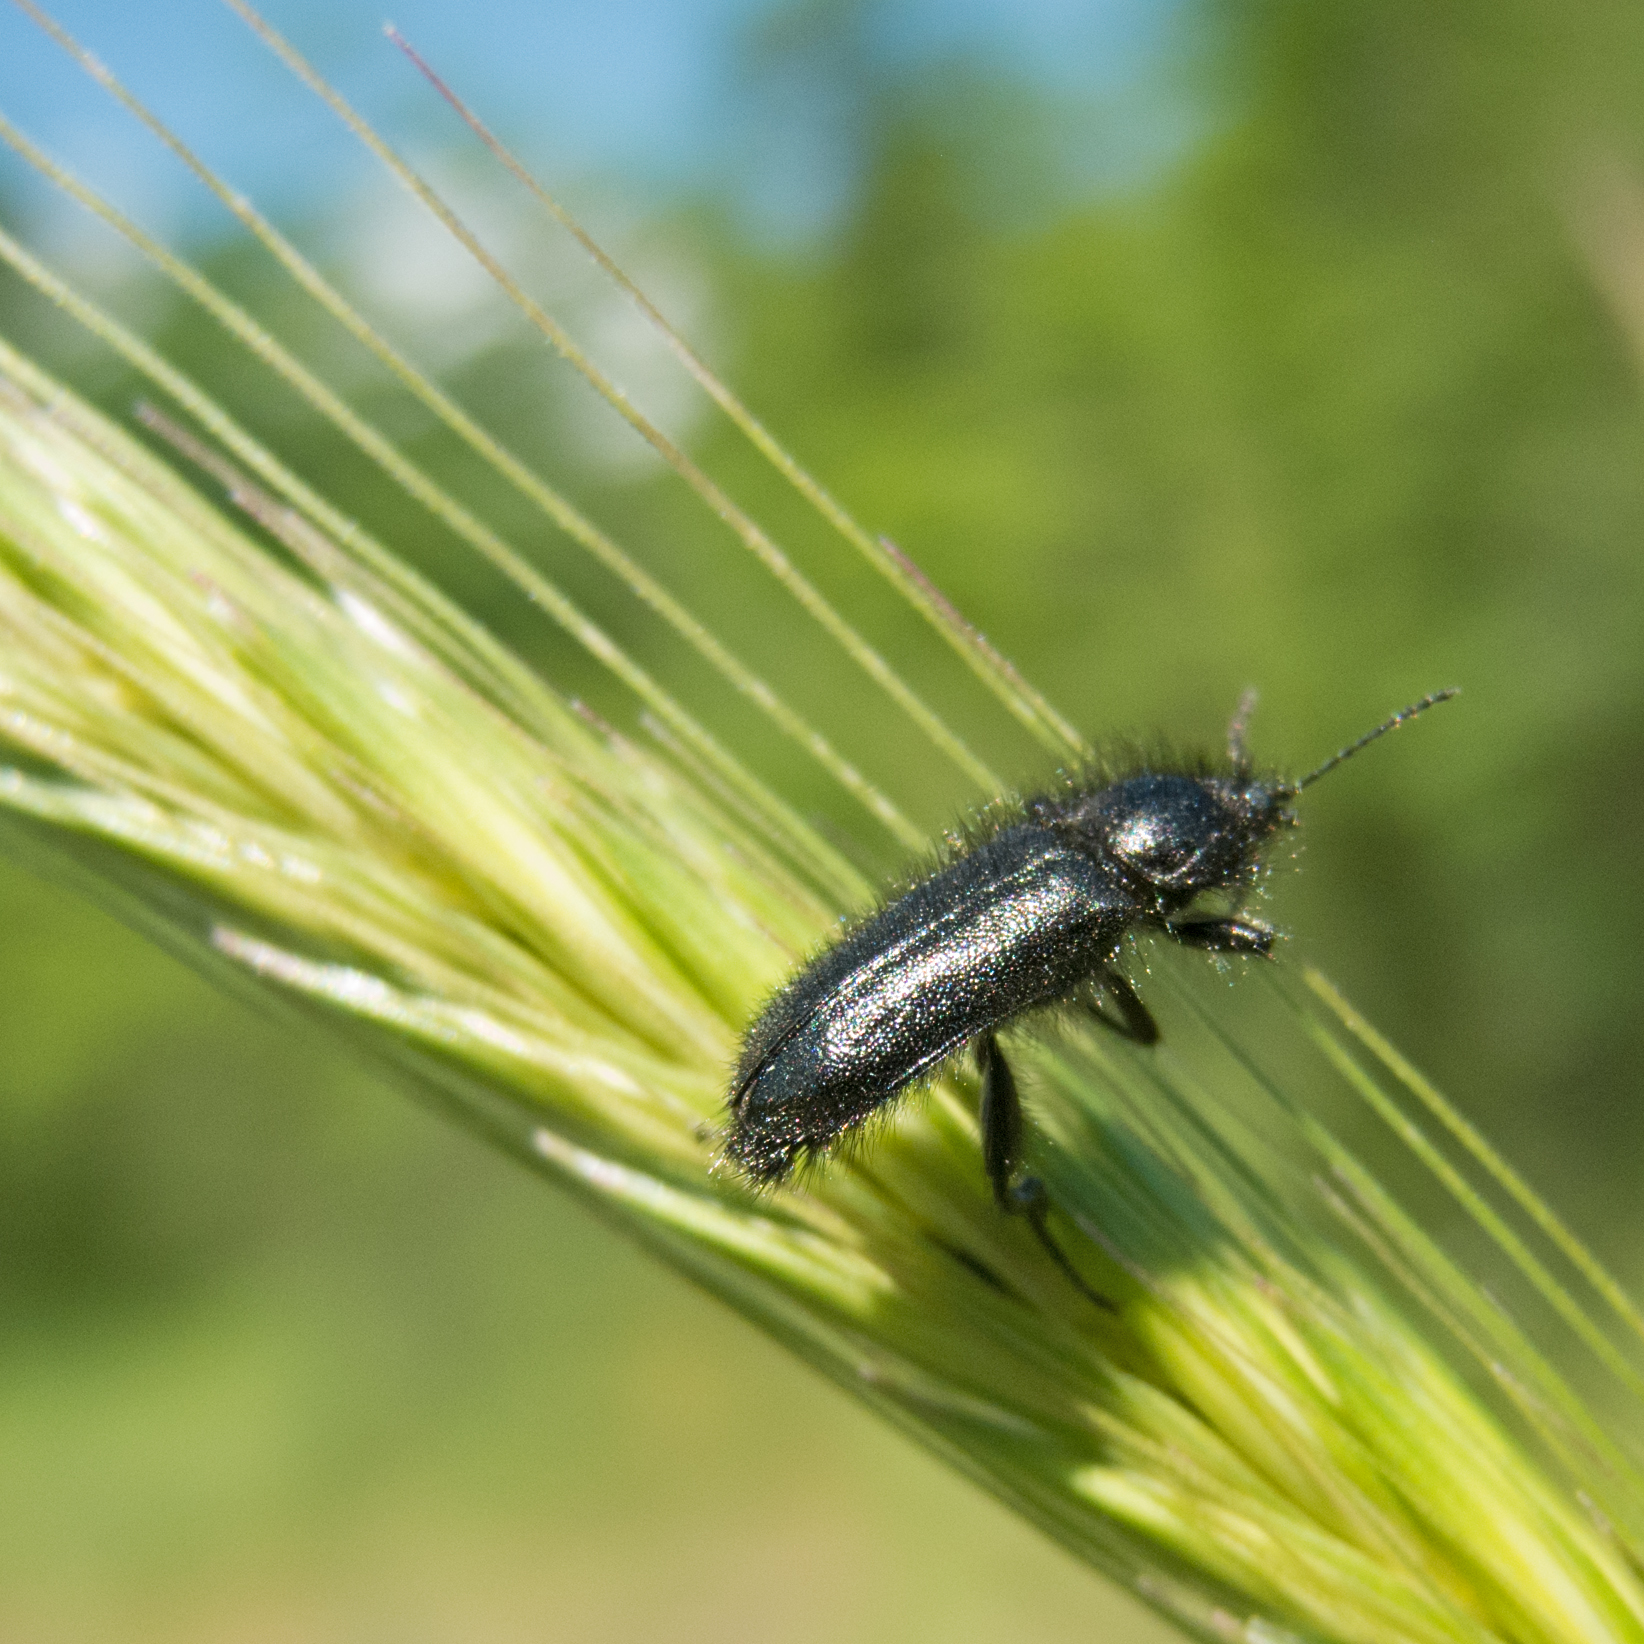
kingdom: Animalia
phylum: Arthropoda
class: Insecta
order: Coleoptera
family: Melyridae
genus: Enicopus
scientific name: Enicopus ater
